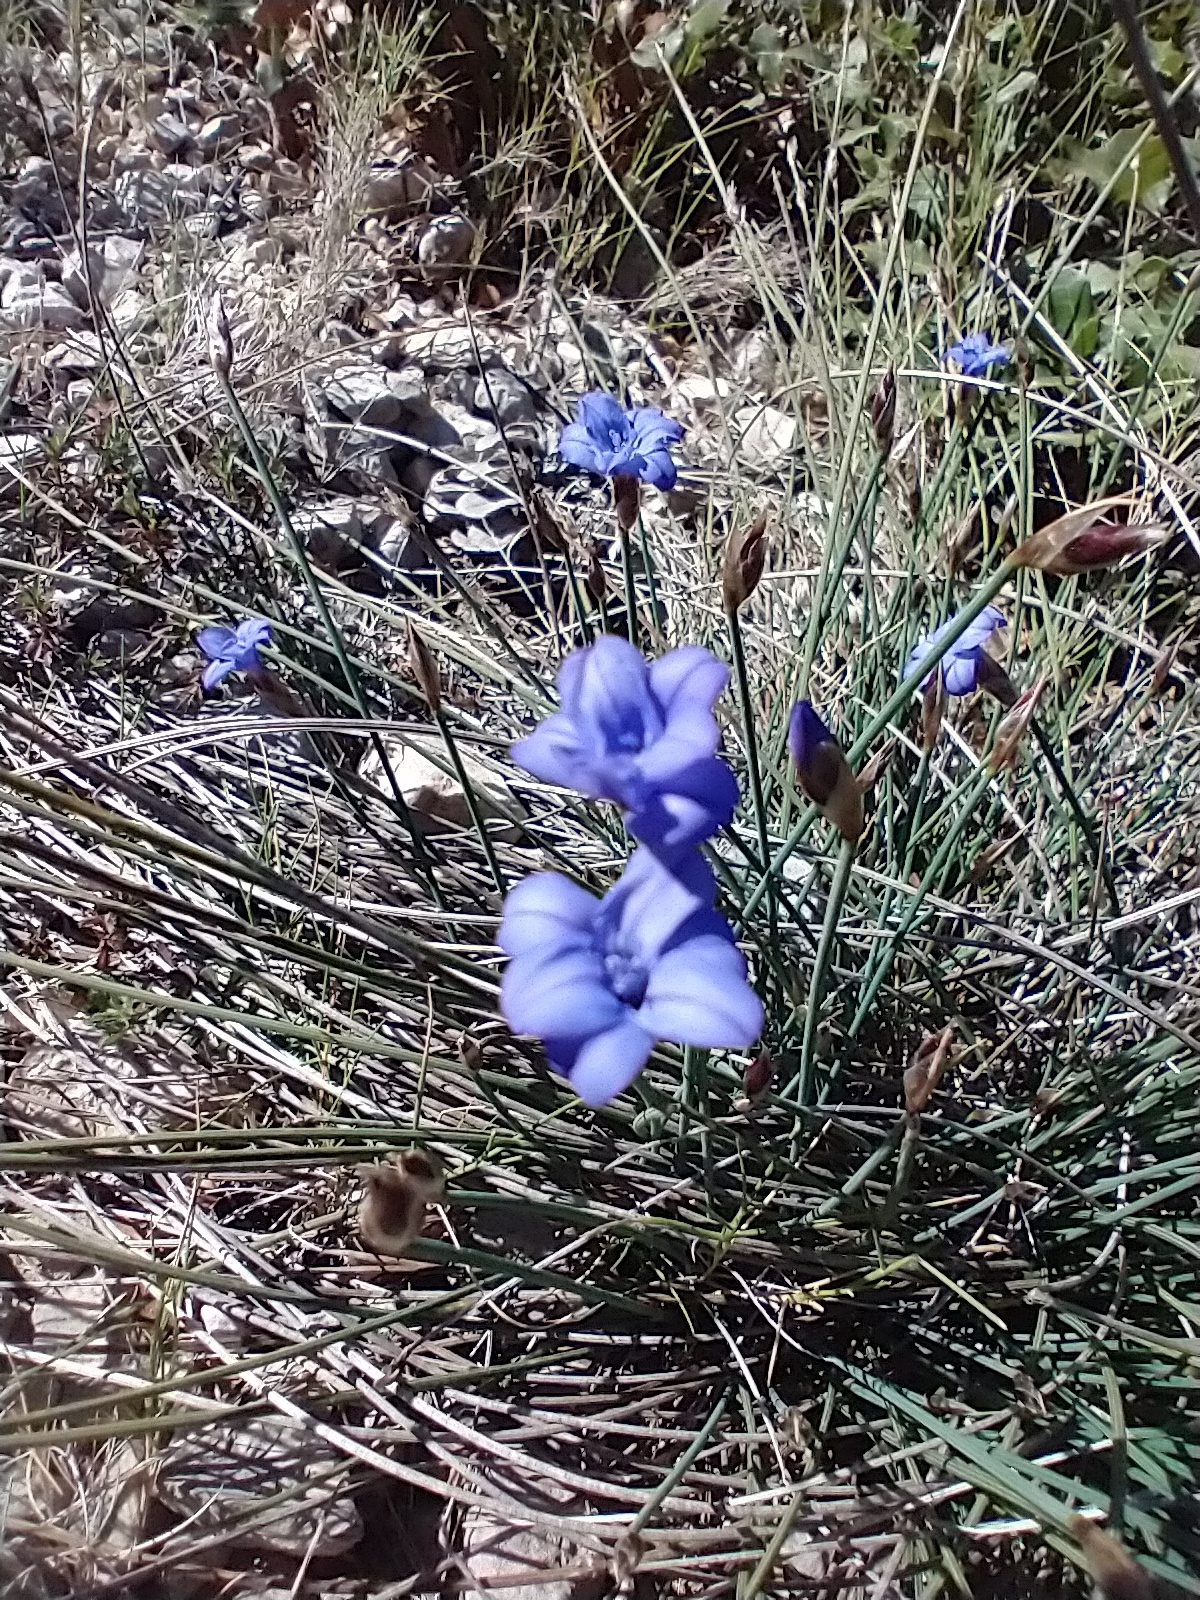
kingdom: Plantae
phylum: Tracheophyta
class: Liliopsida
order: Asparagales
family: Asparagaceae
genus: Aphyllanthes
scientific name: Aphyllanthes monspeliensis
